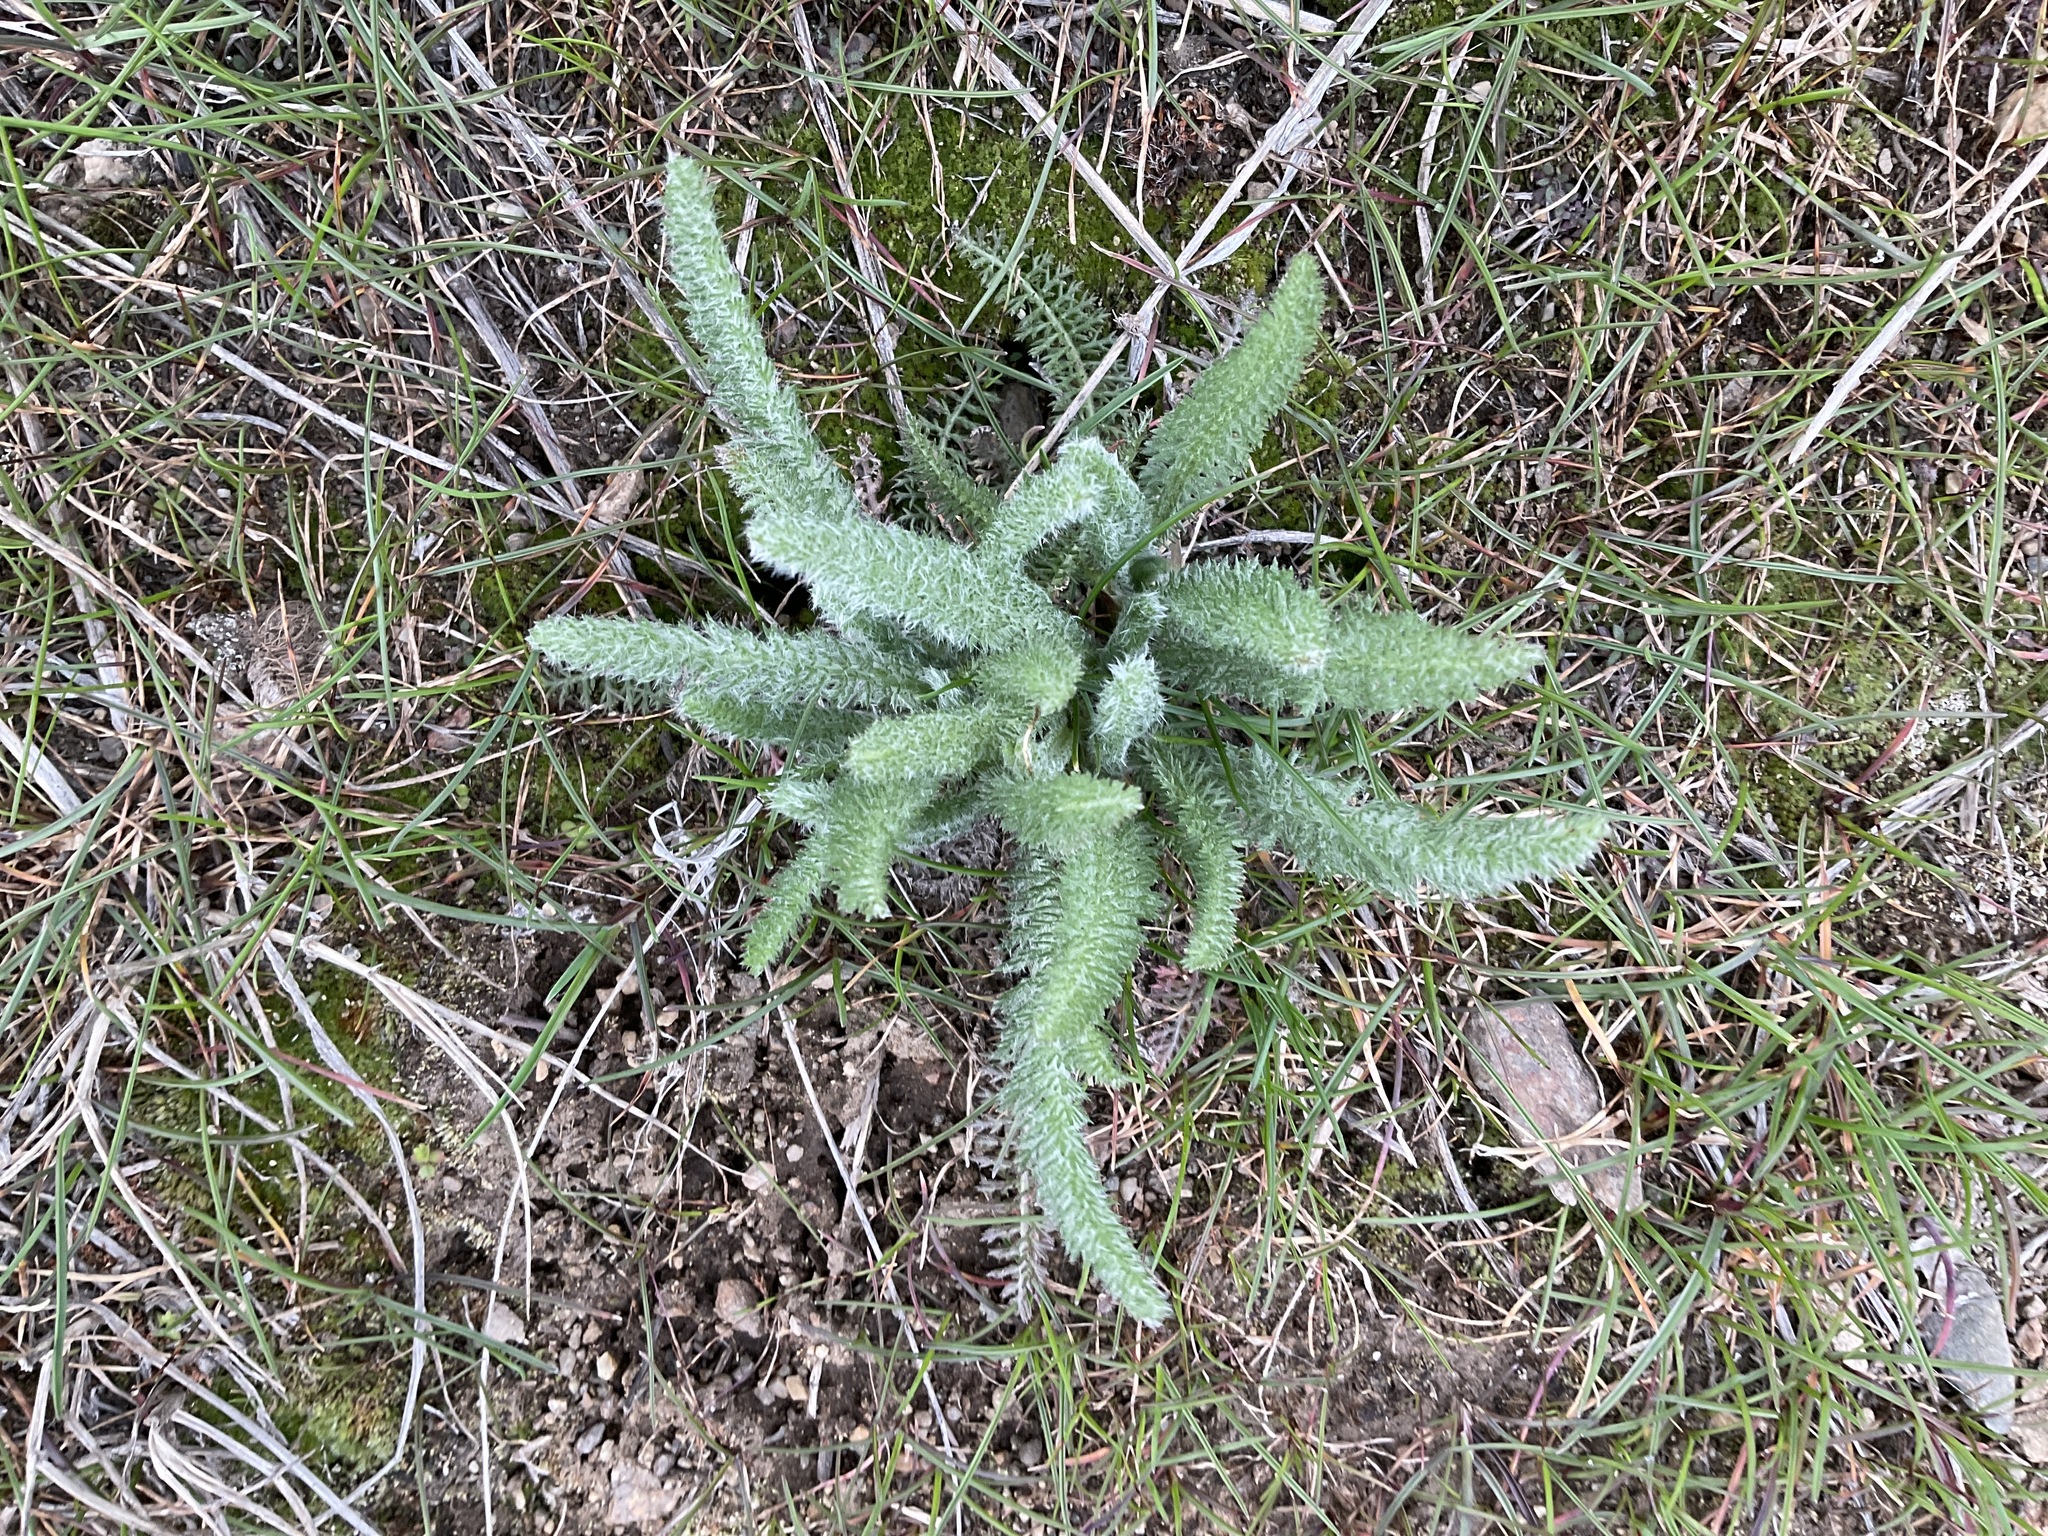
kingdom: Plantae
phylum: Tracheophyta
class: Magnoliopsida
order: Asterales
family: Asteraceae
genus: Achillea
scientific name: Achillea millefolium
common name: Yarrow
